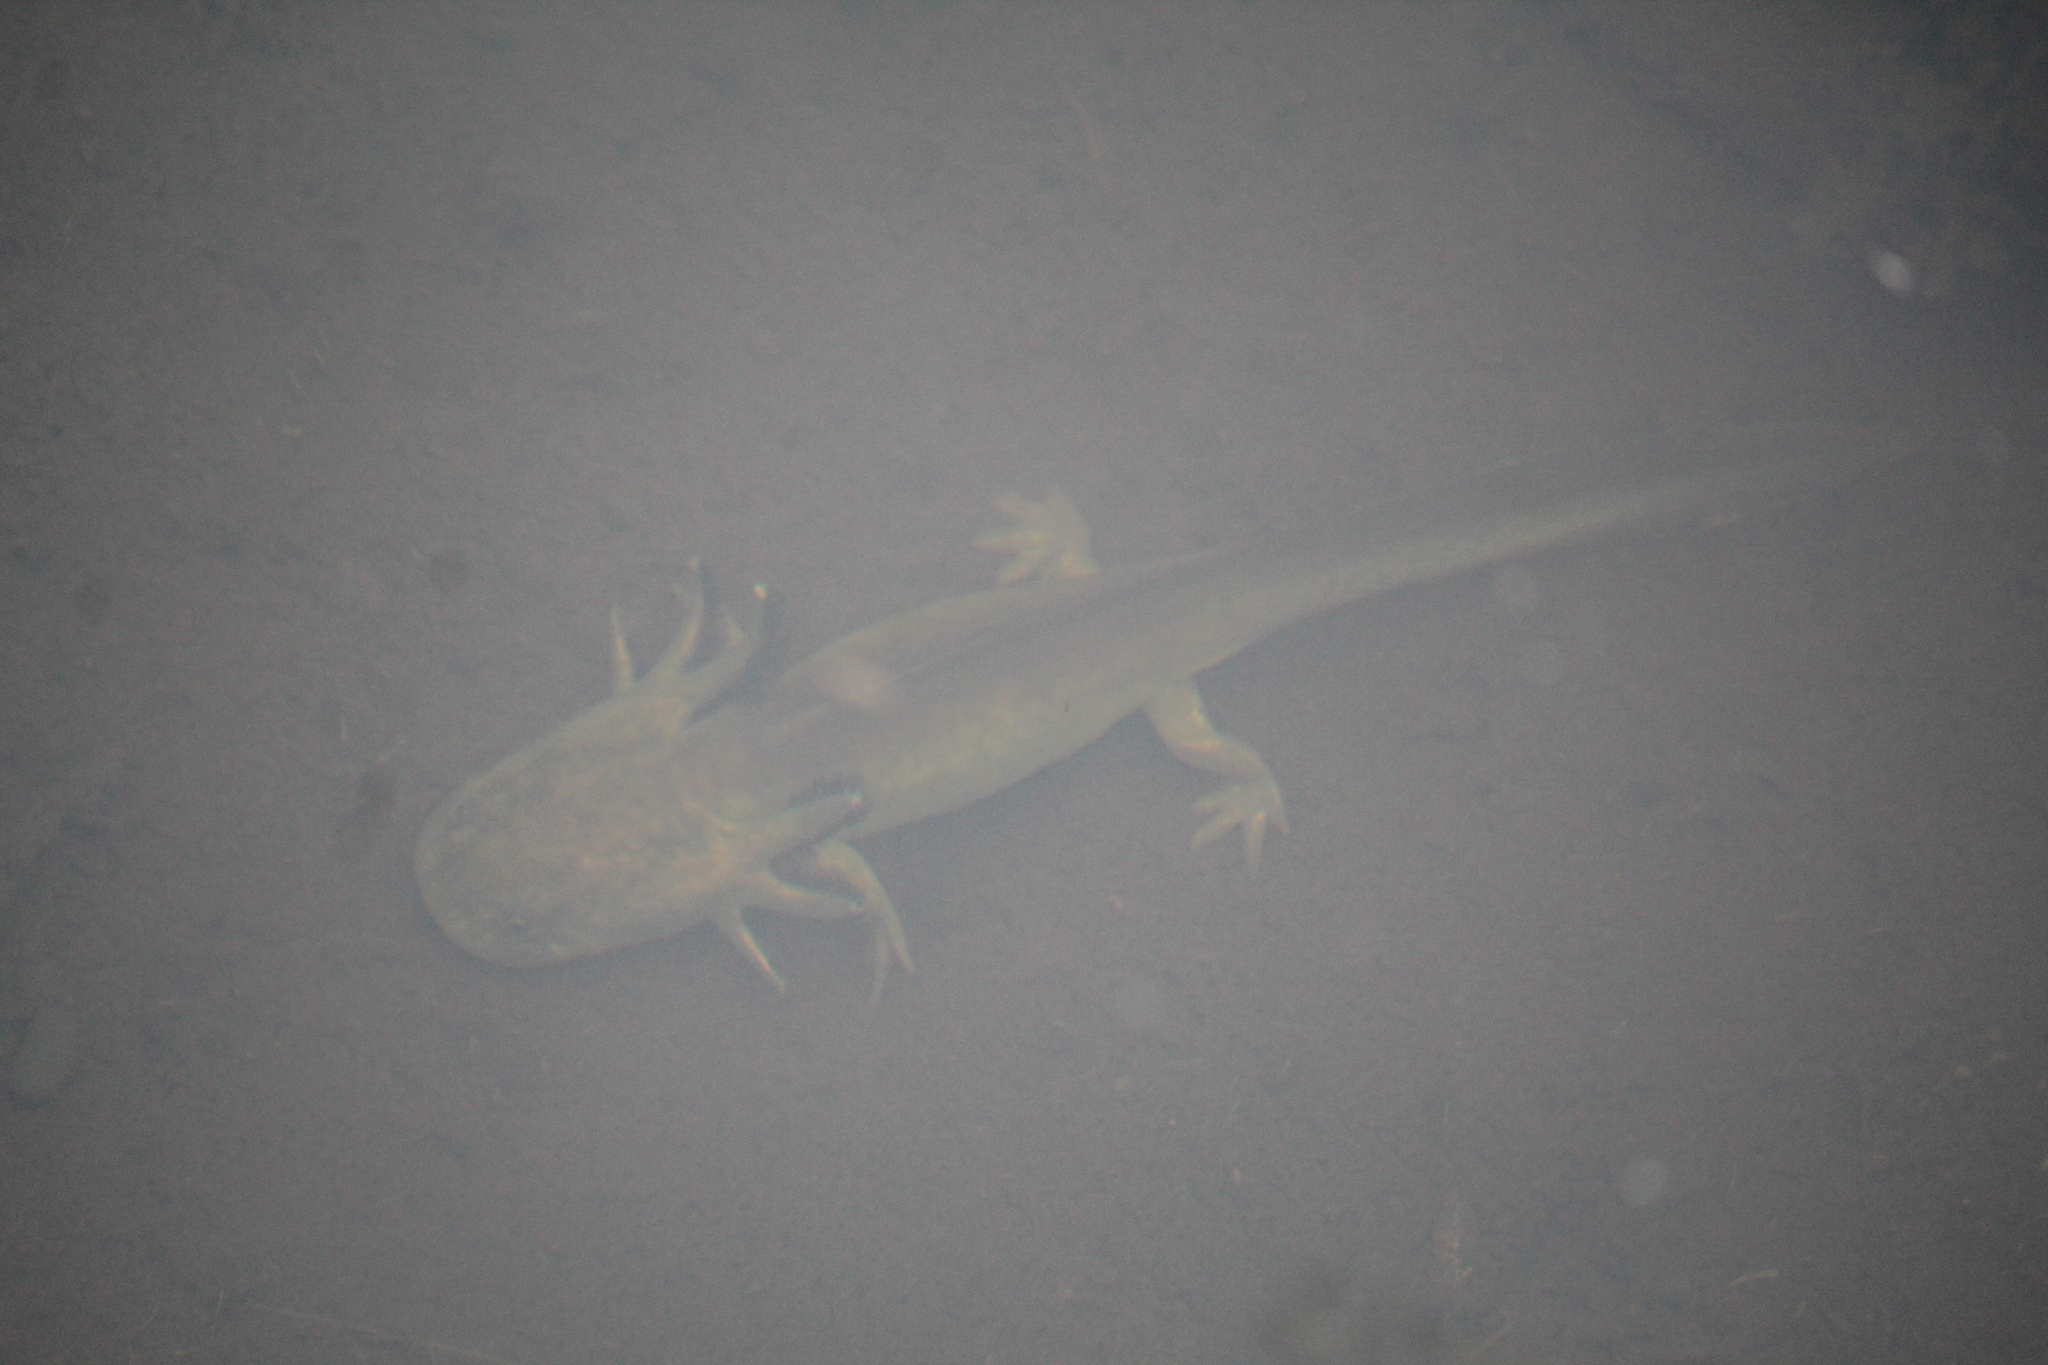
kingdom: Animalia
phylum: Chordata
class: Amphibia
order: Caudata
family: Ambystomatidae
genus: Ambystoma
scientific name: Ambystoma mavortium
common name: Western tiger salamander
